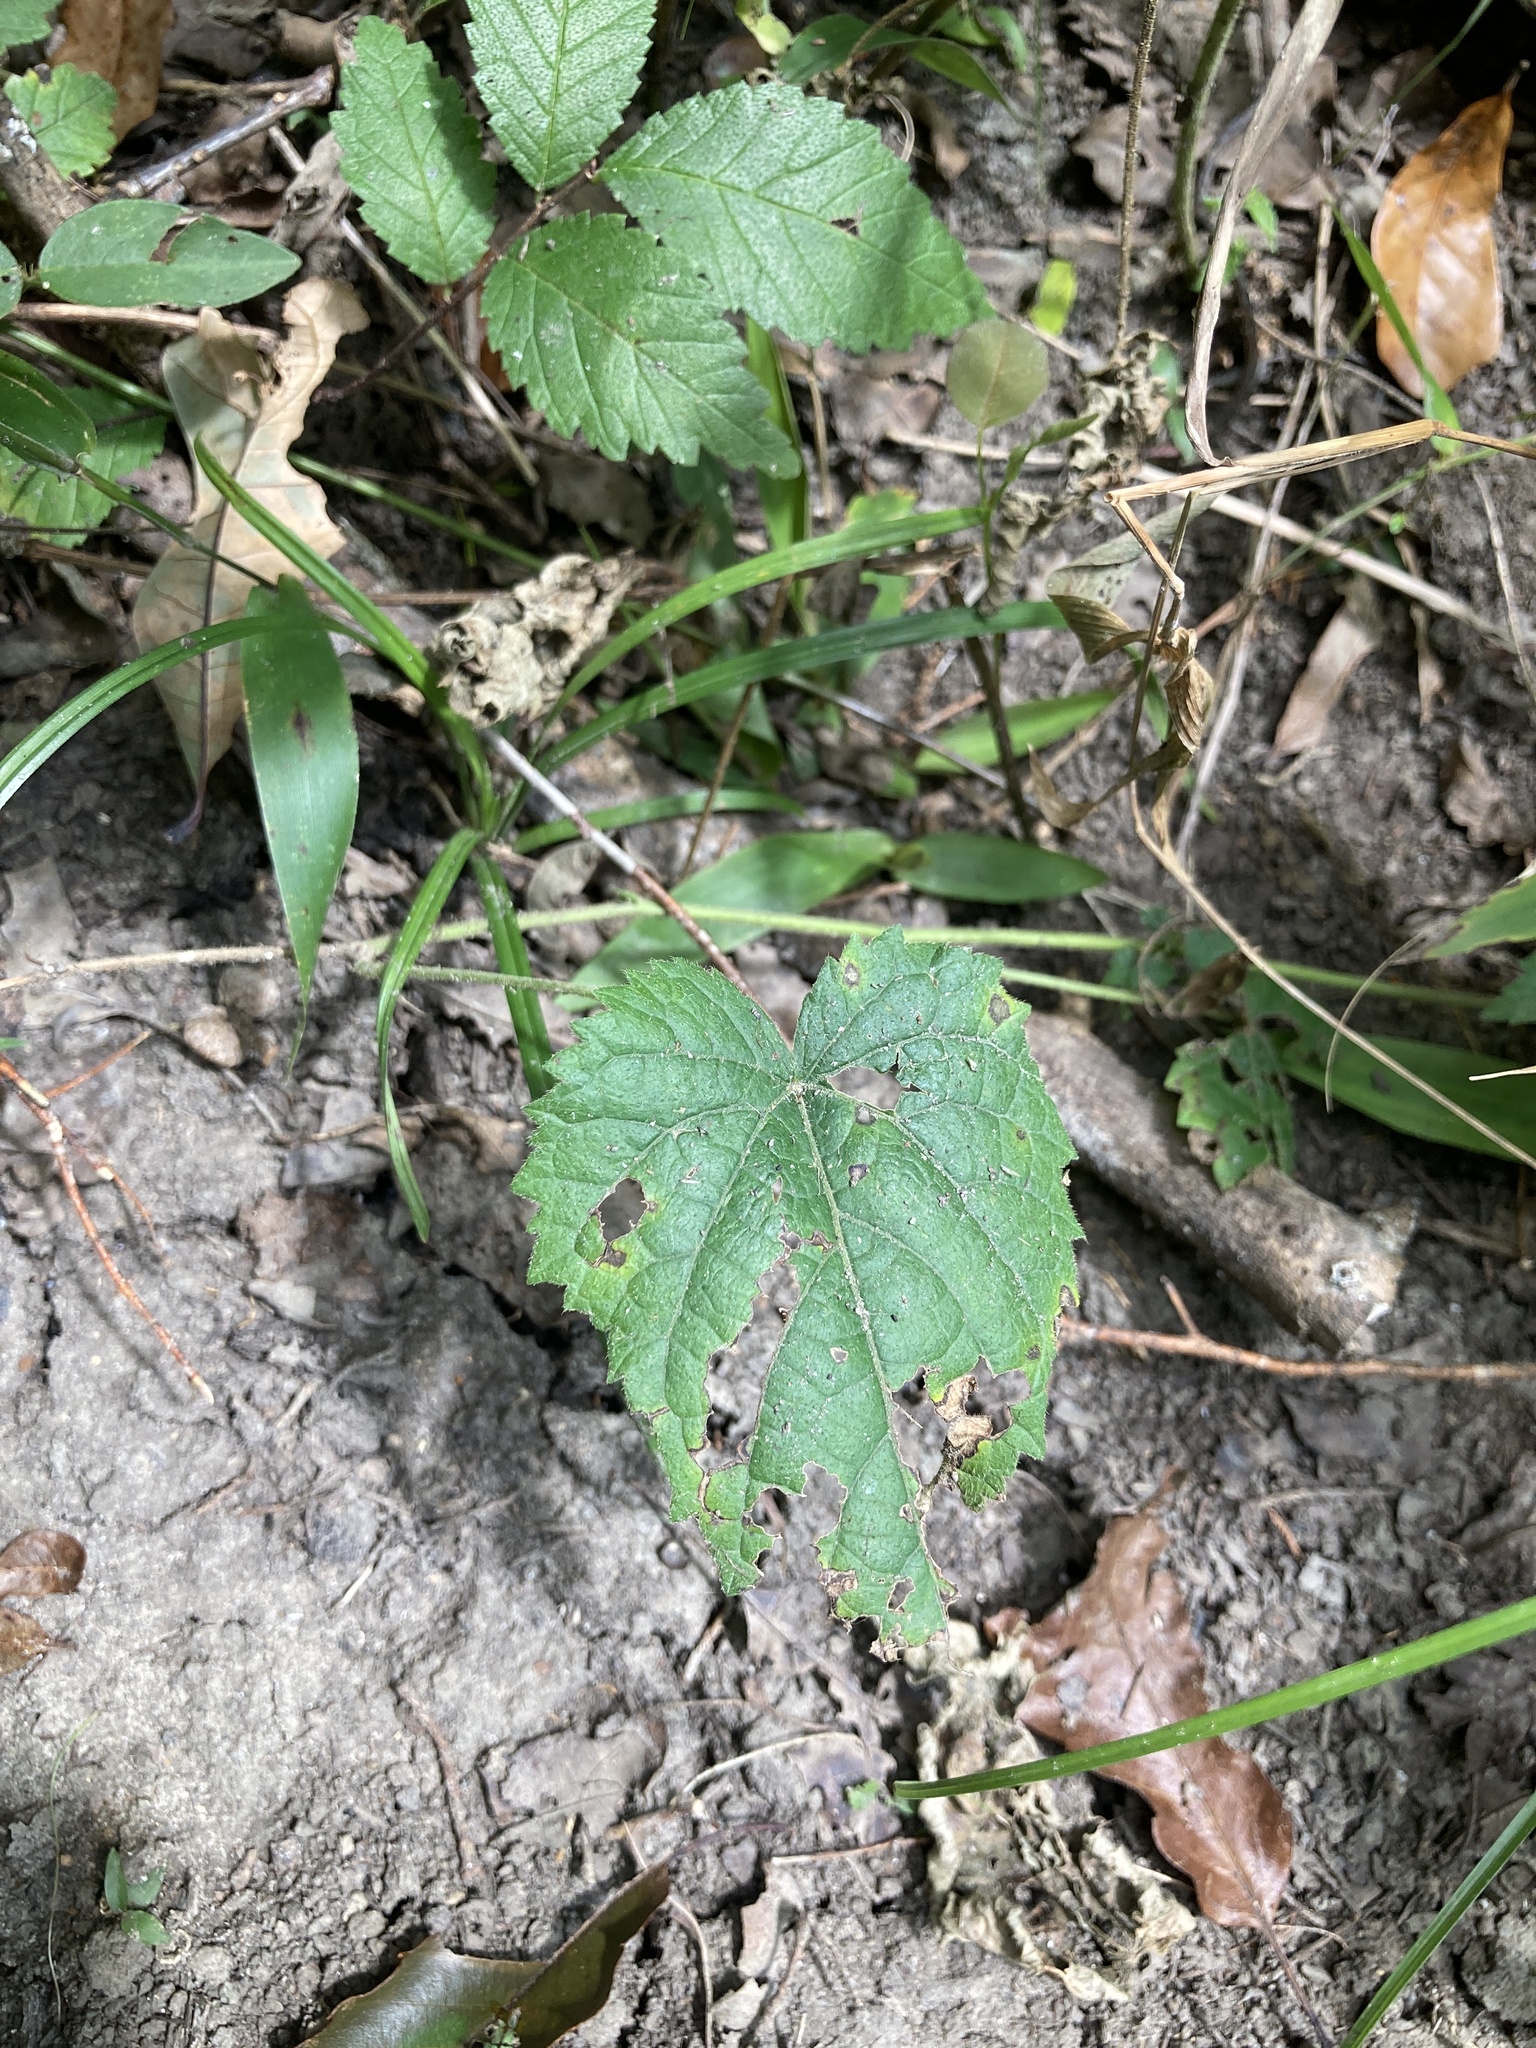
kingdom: Plantae
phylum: Tracheophyta
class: Magnoliopsida
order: Malpighiales
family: Euphorbiaceae
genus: Tragia
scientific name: Tragia cordata
